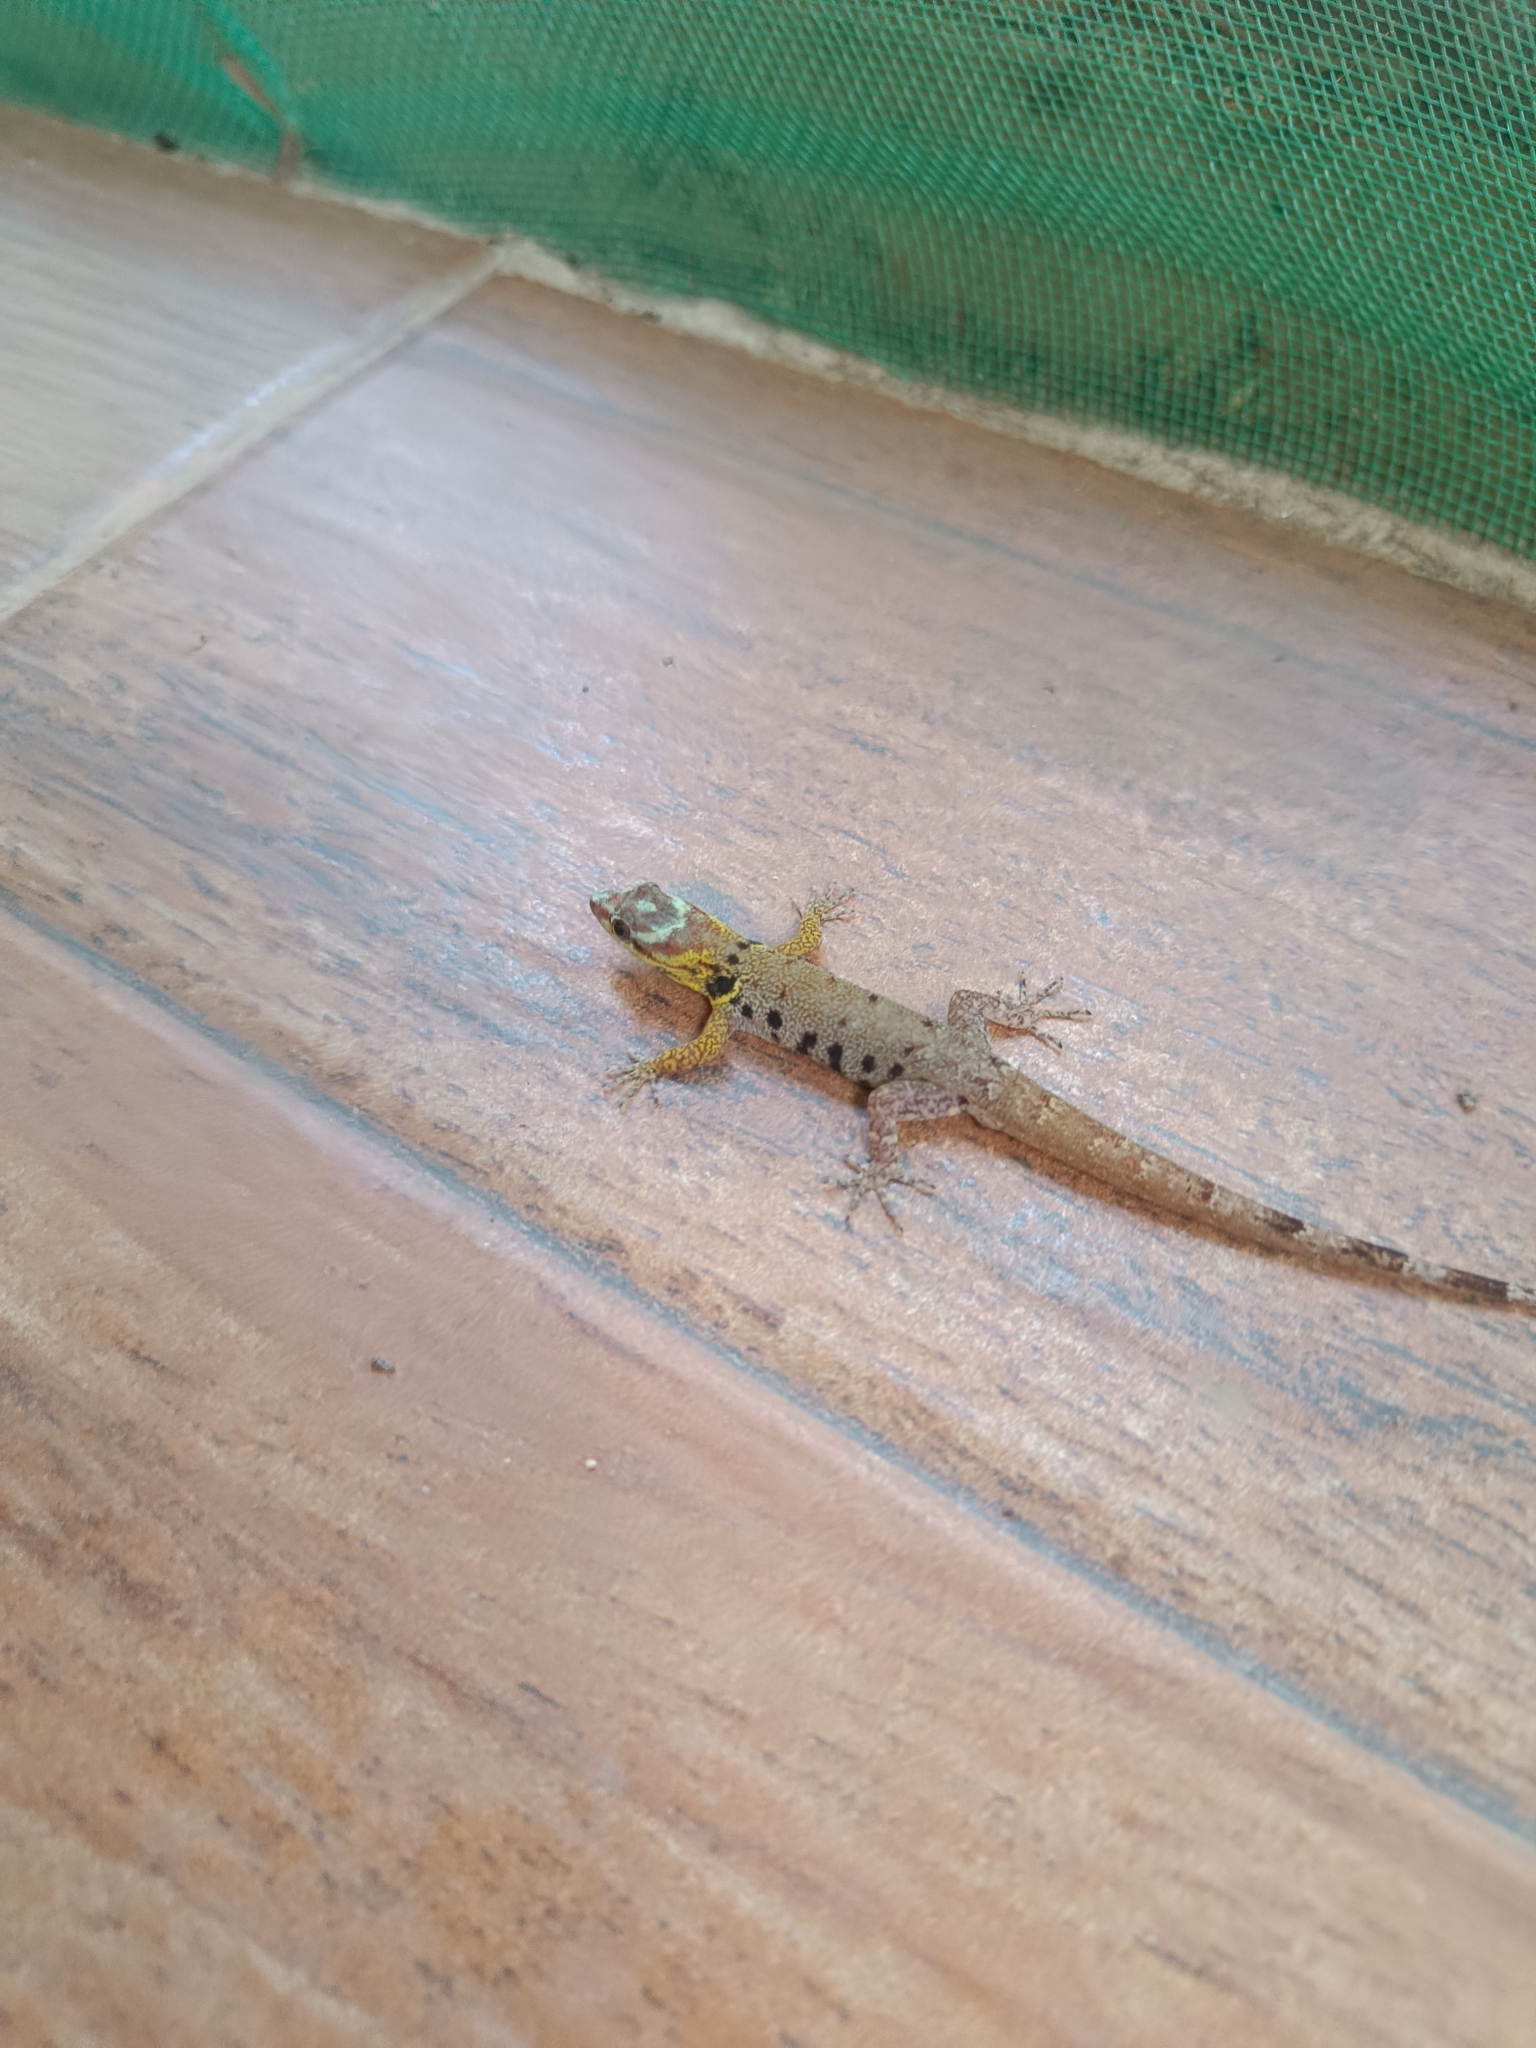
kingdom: Animalia
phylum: Chordata
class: Squamata
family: Sphaerodactylidae
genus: Gonatodes
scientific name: Gonatodes humeralis
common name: South american clawed gecko
